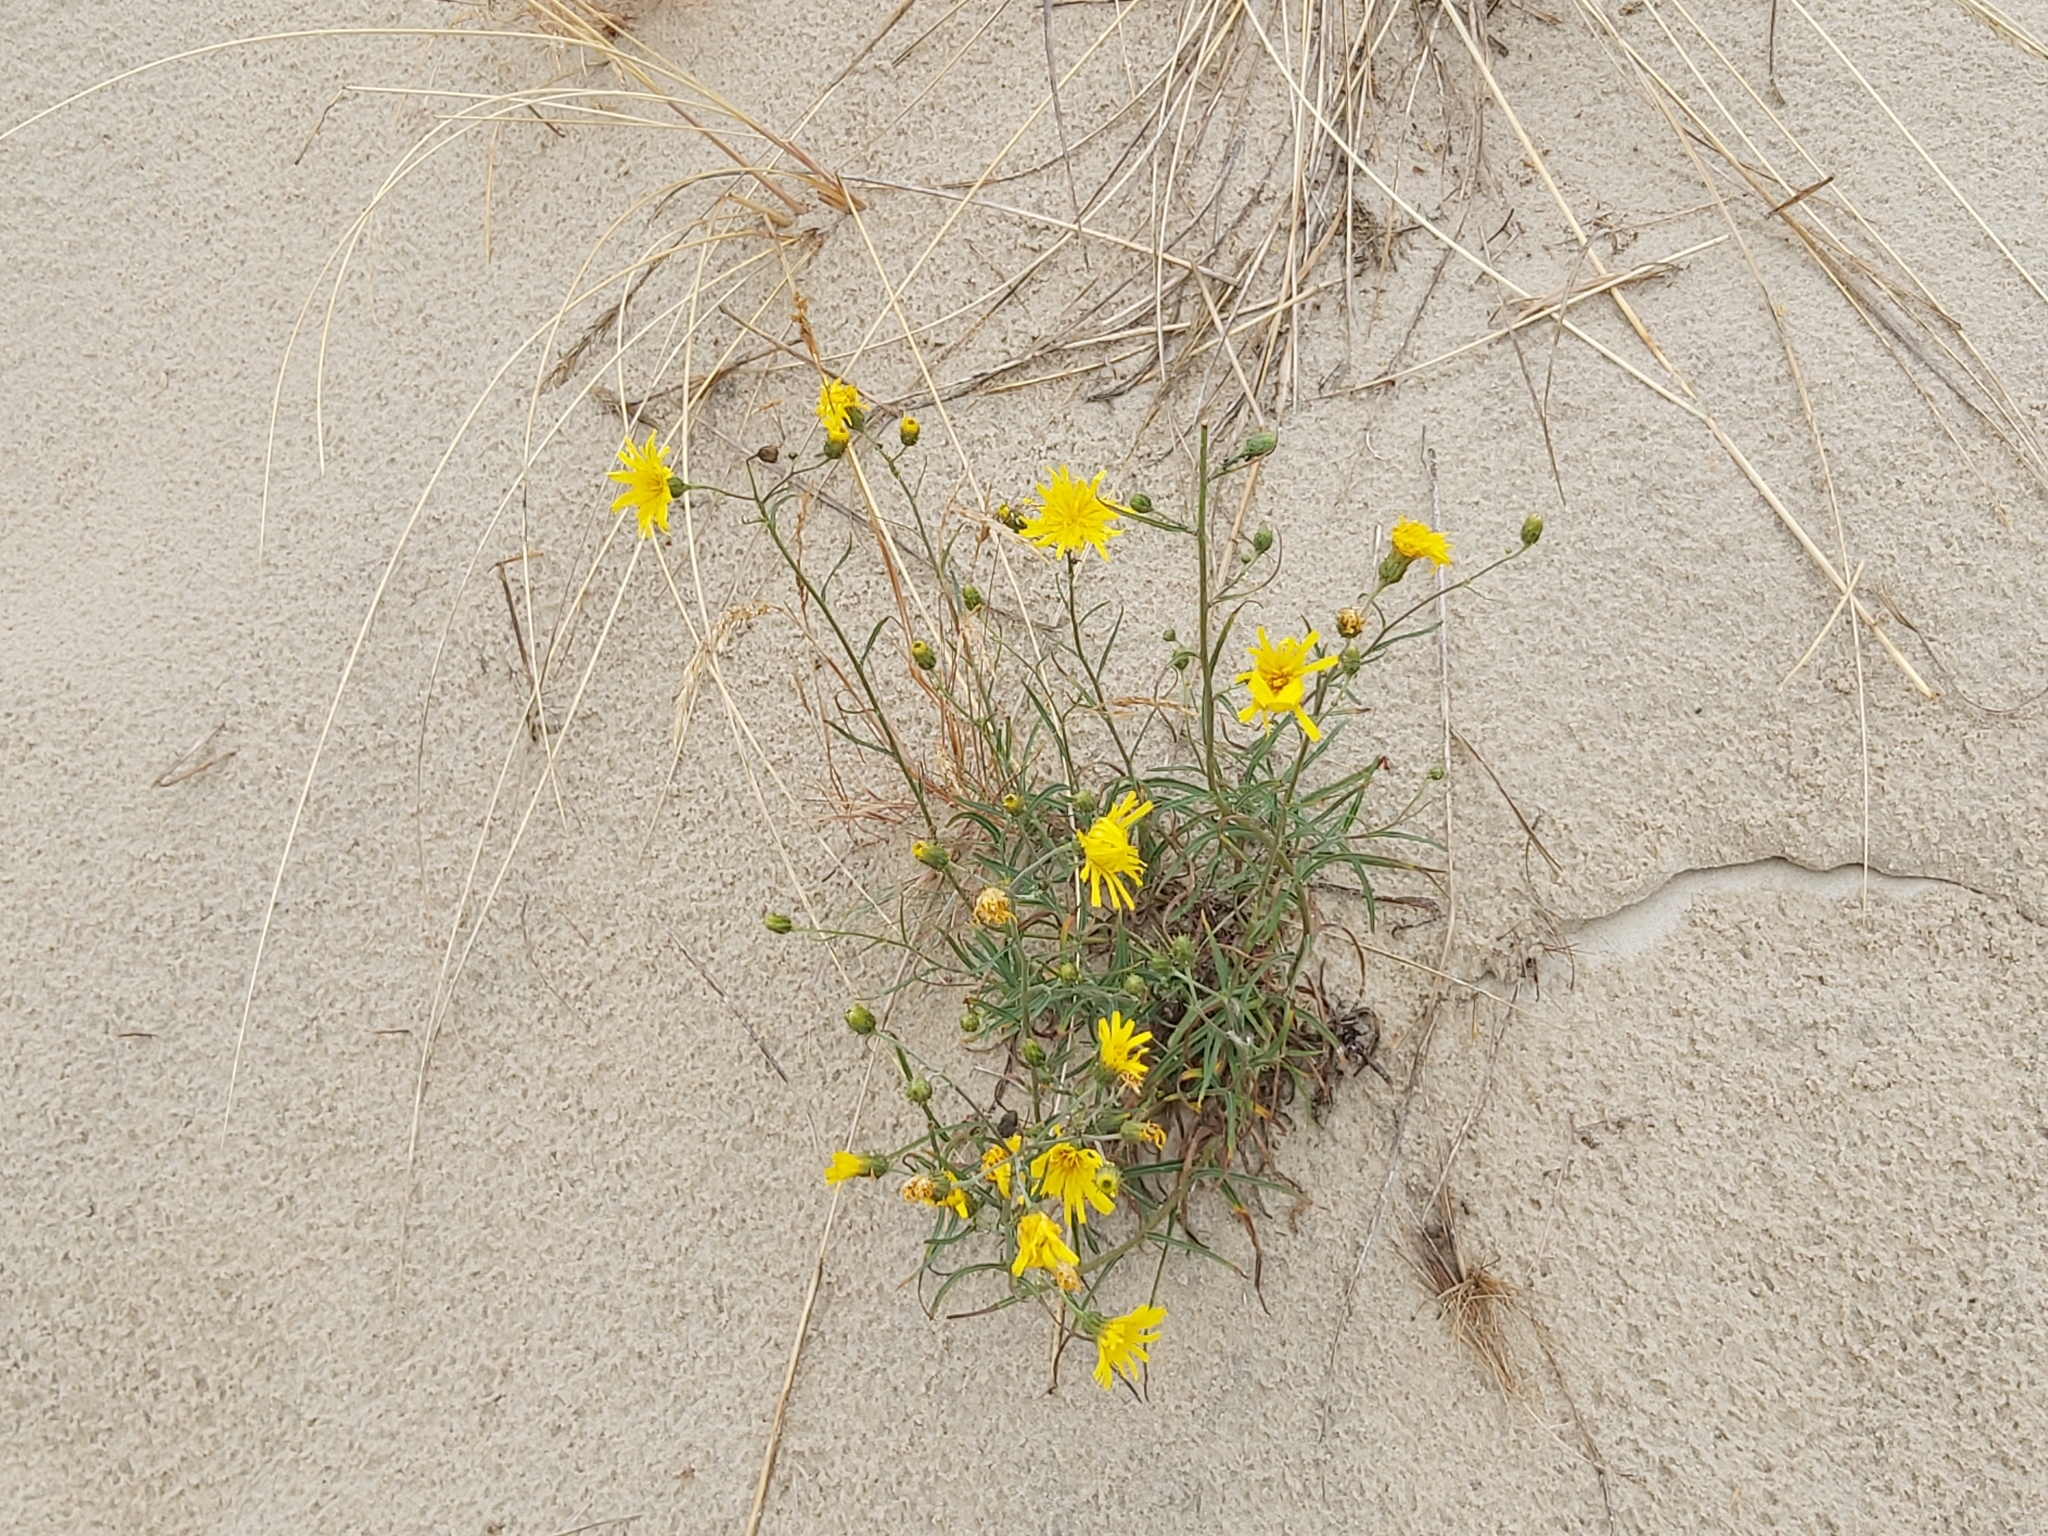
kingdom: Plantae
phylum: Tracheophyta
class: Magnoliopsida
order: Asterales
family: Asteraceae
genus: Hieracium
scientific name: Hieracium umbellatum
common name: Northern hawkweed
